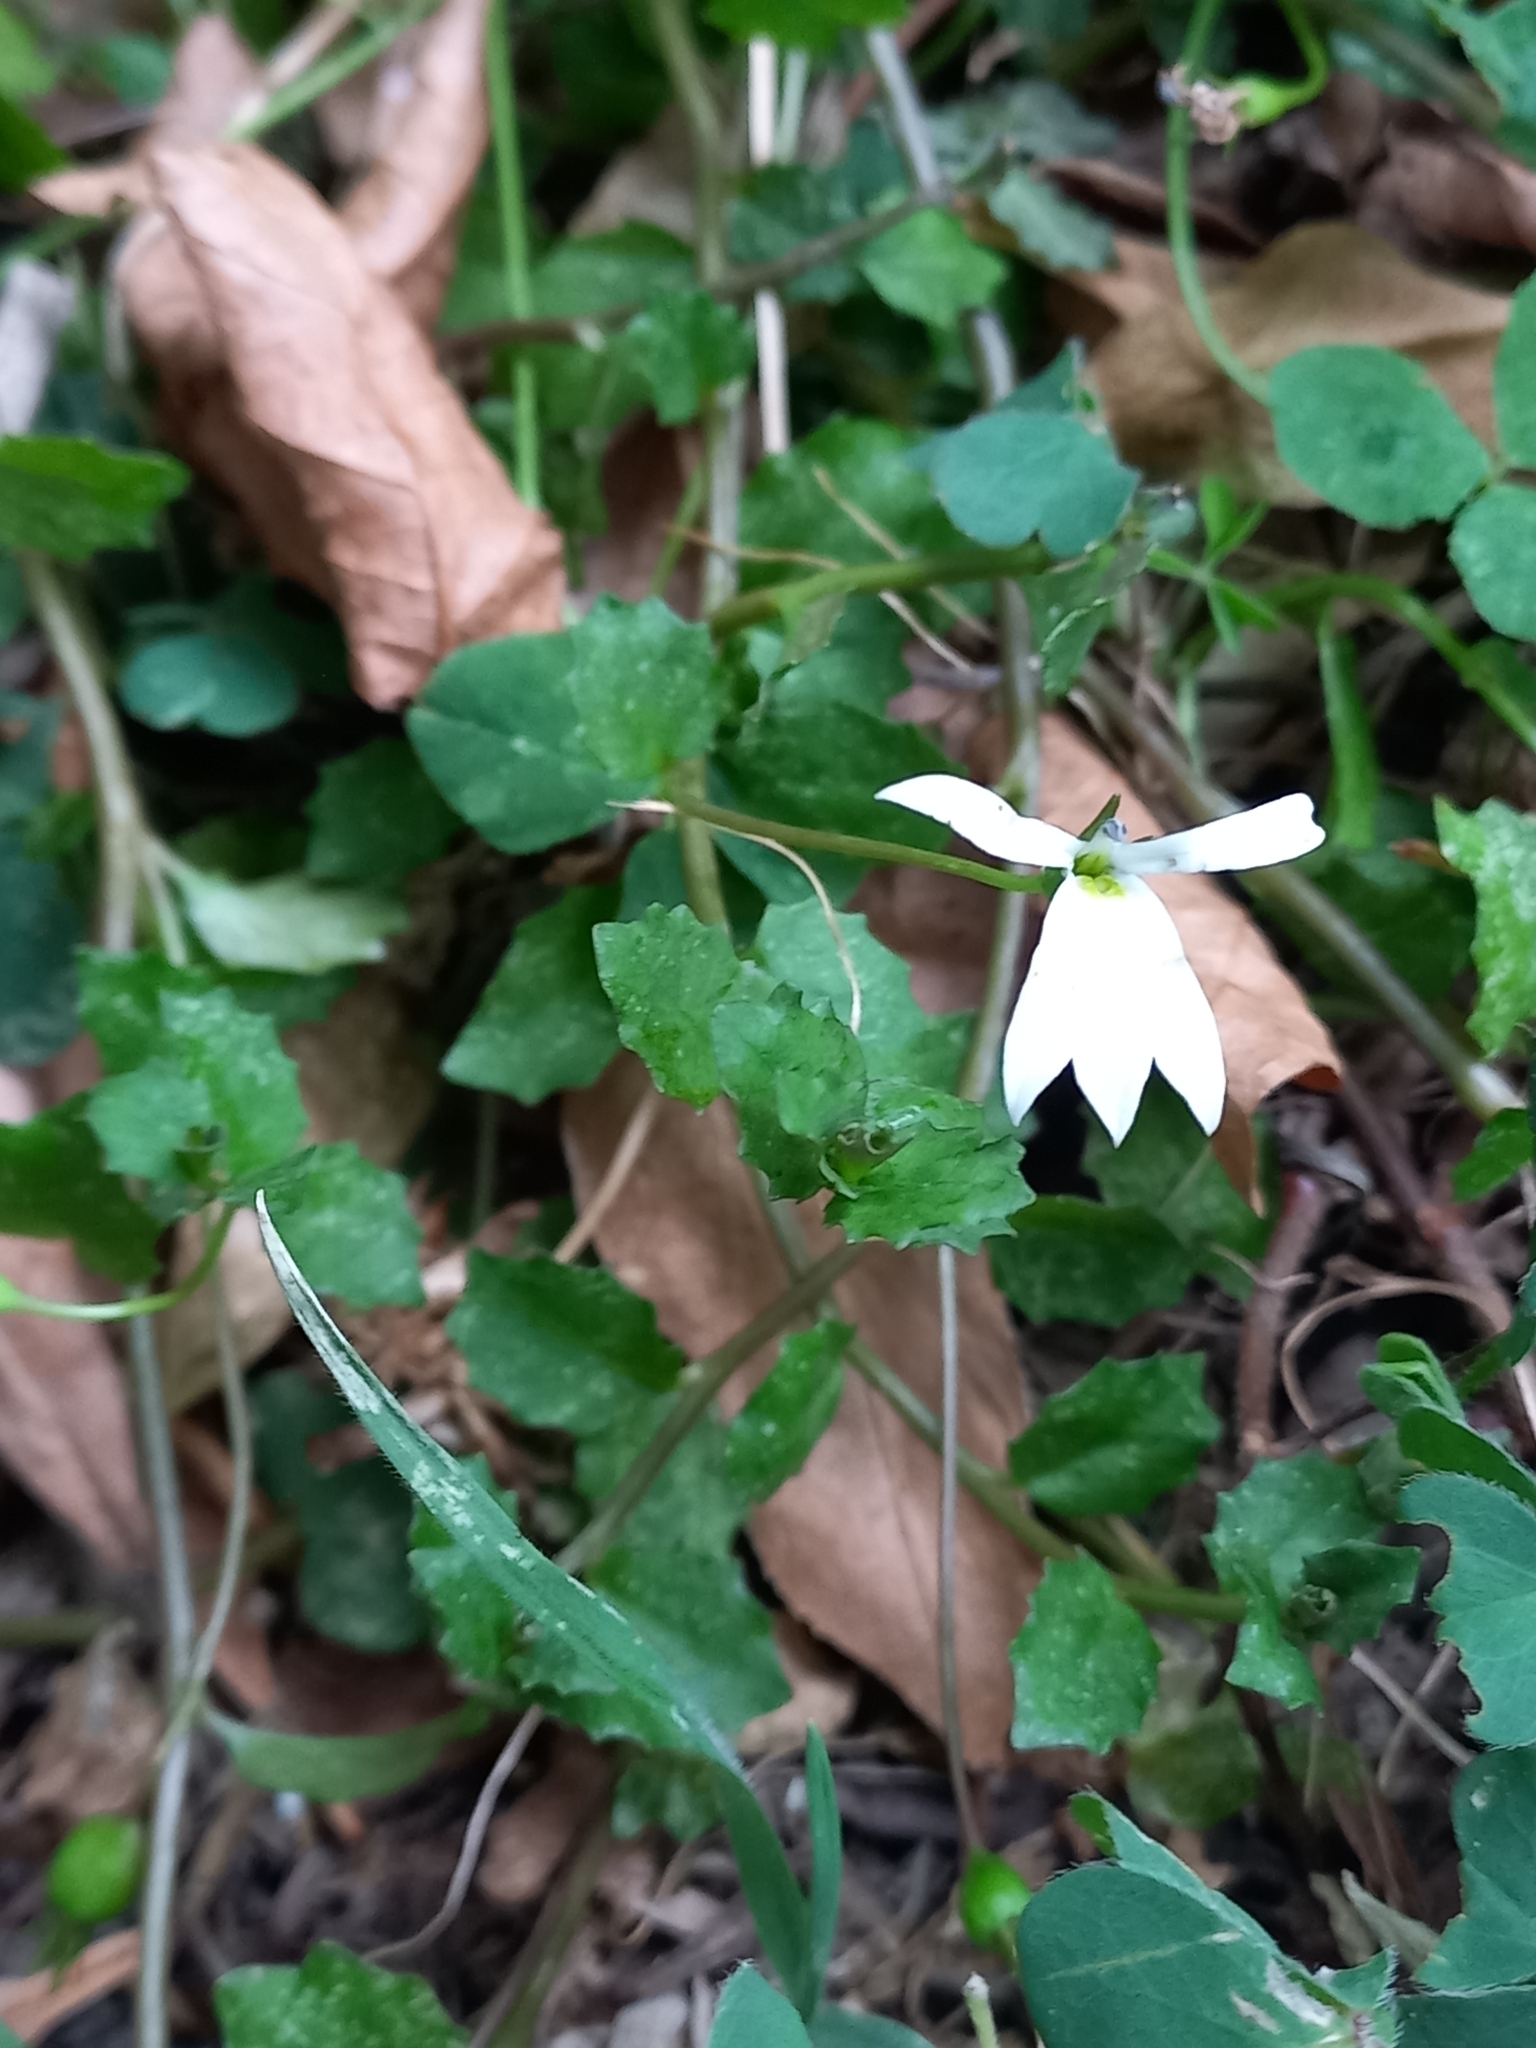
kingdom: Plantae
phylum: Tracheophyta
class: Magnoliopsida
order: Asterales
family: Campanulaceae
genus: Lobelia
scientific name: Lobelia angulata
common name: Lawn lobelia
